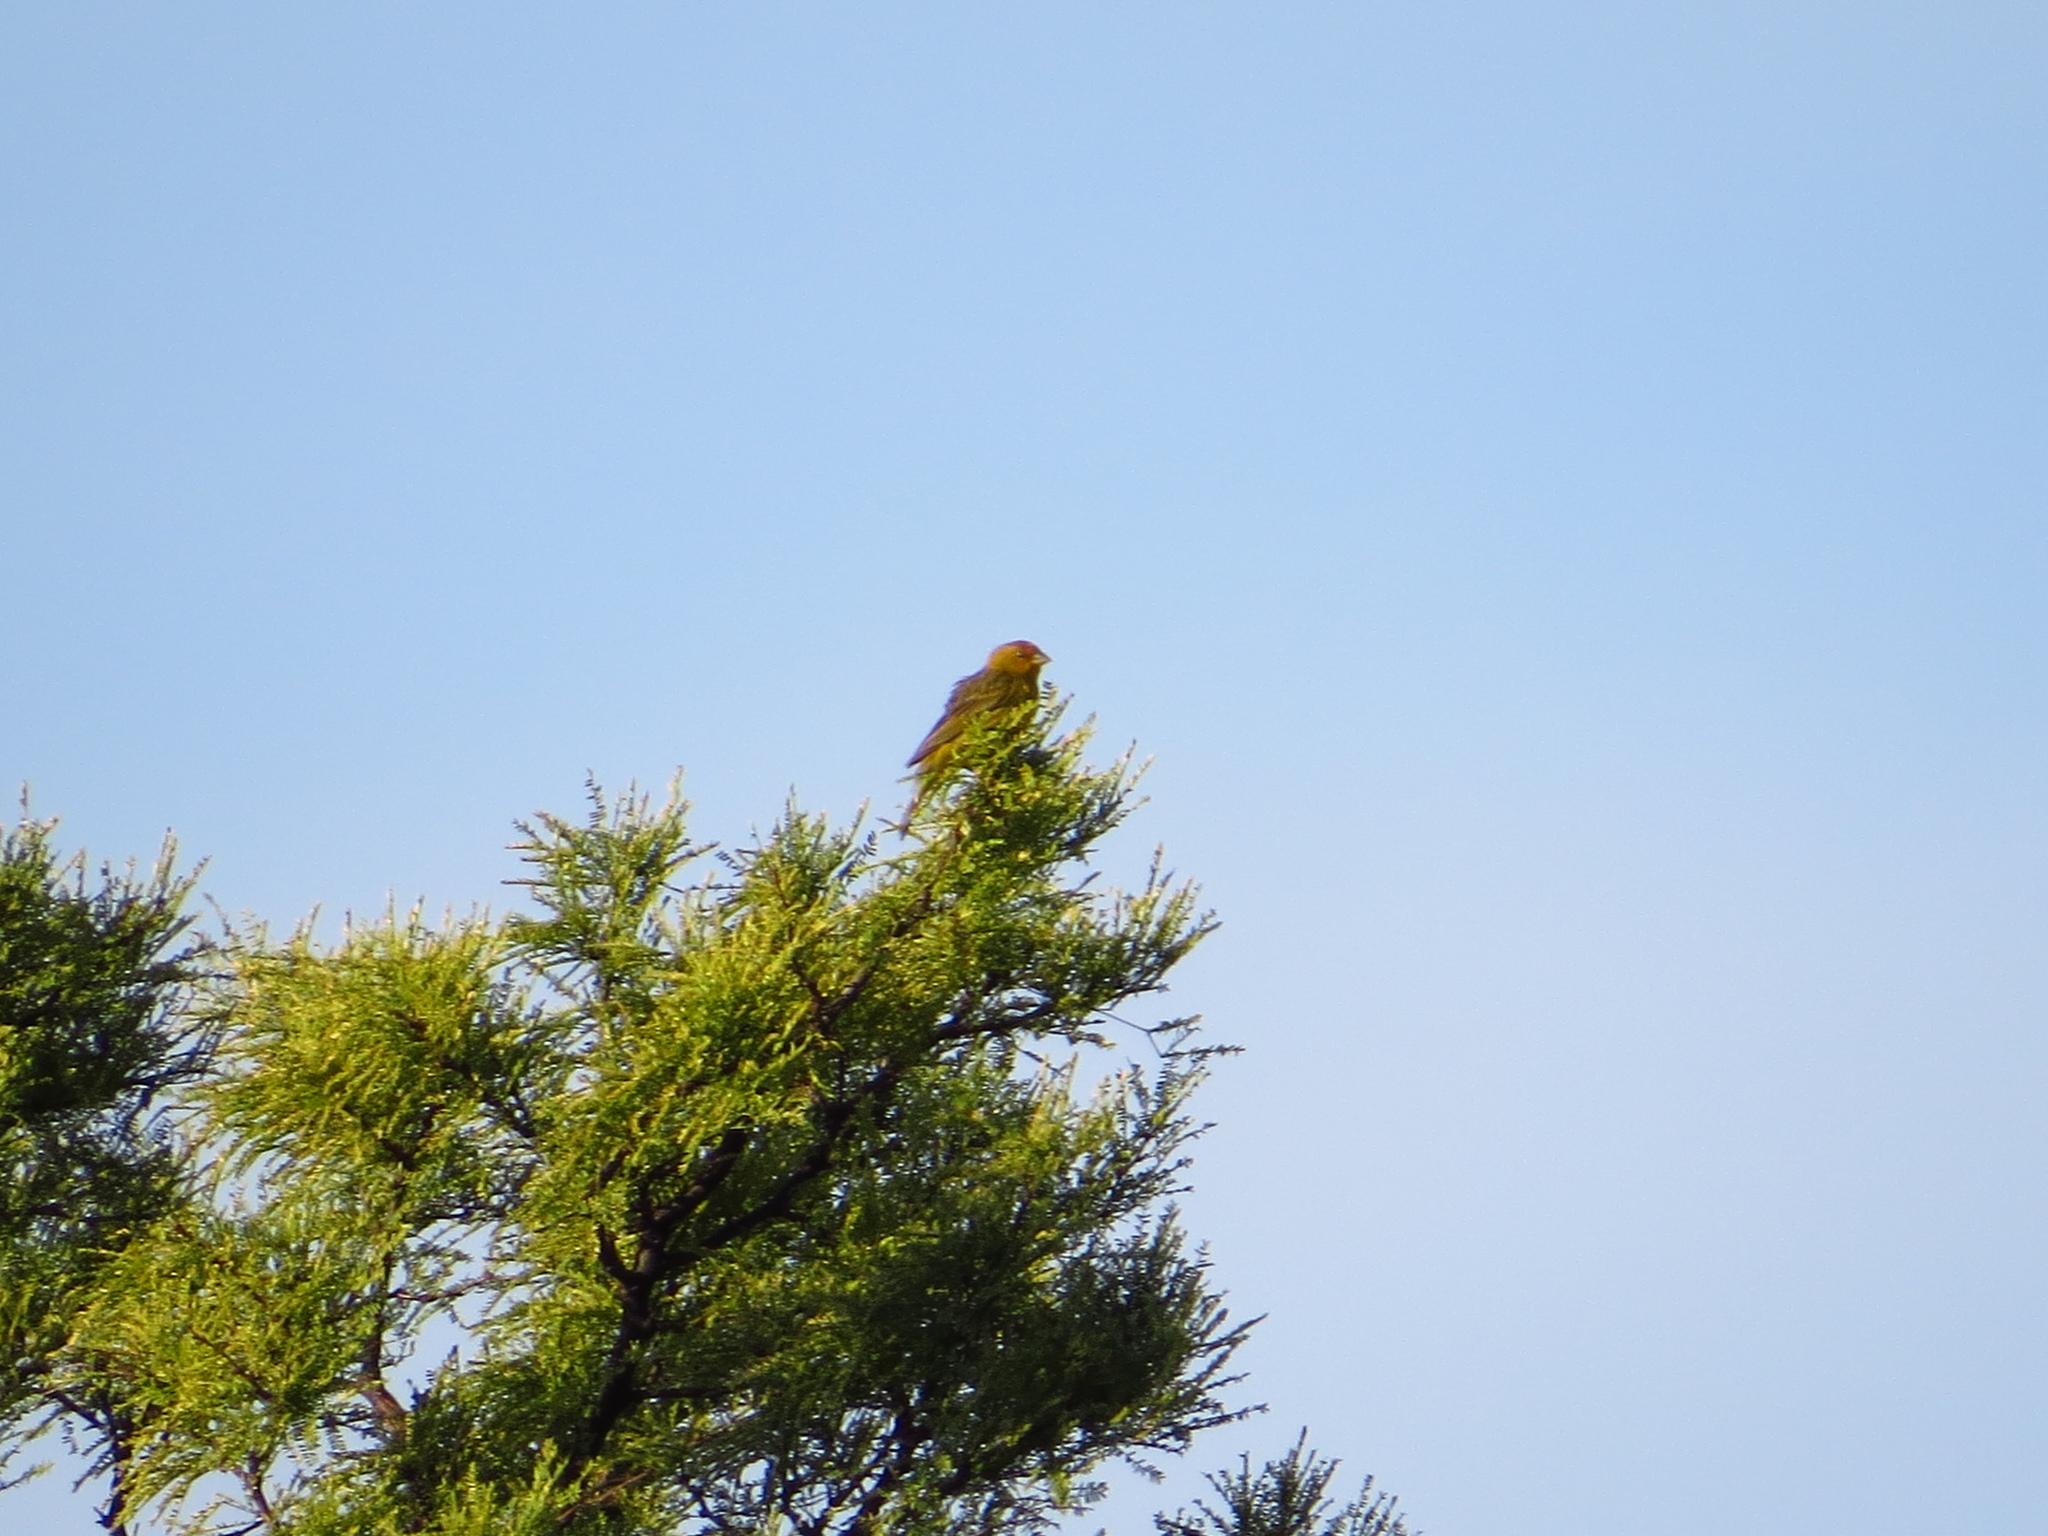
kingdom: Animalia
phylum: Chordata
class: Aves
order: Passeriformes
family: Thraupidae
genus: Sicalis
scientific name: Sicalis flaveola
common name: Saffron finch
